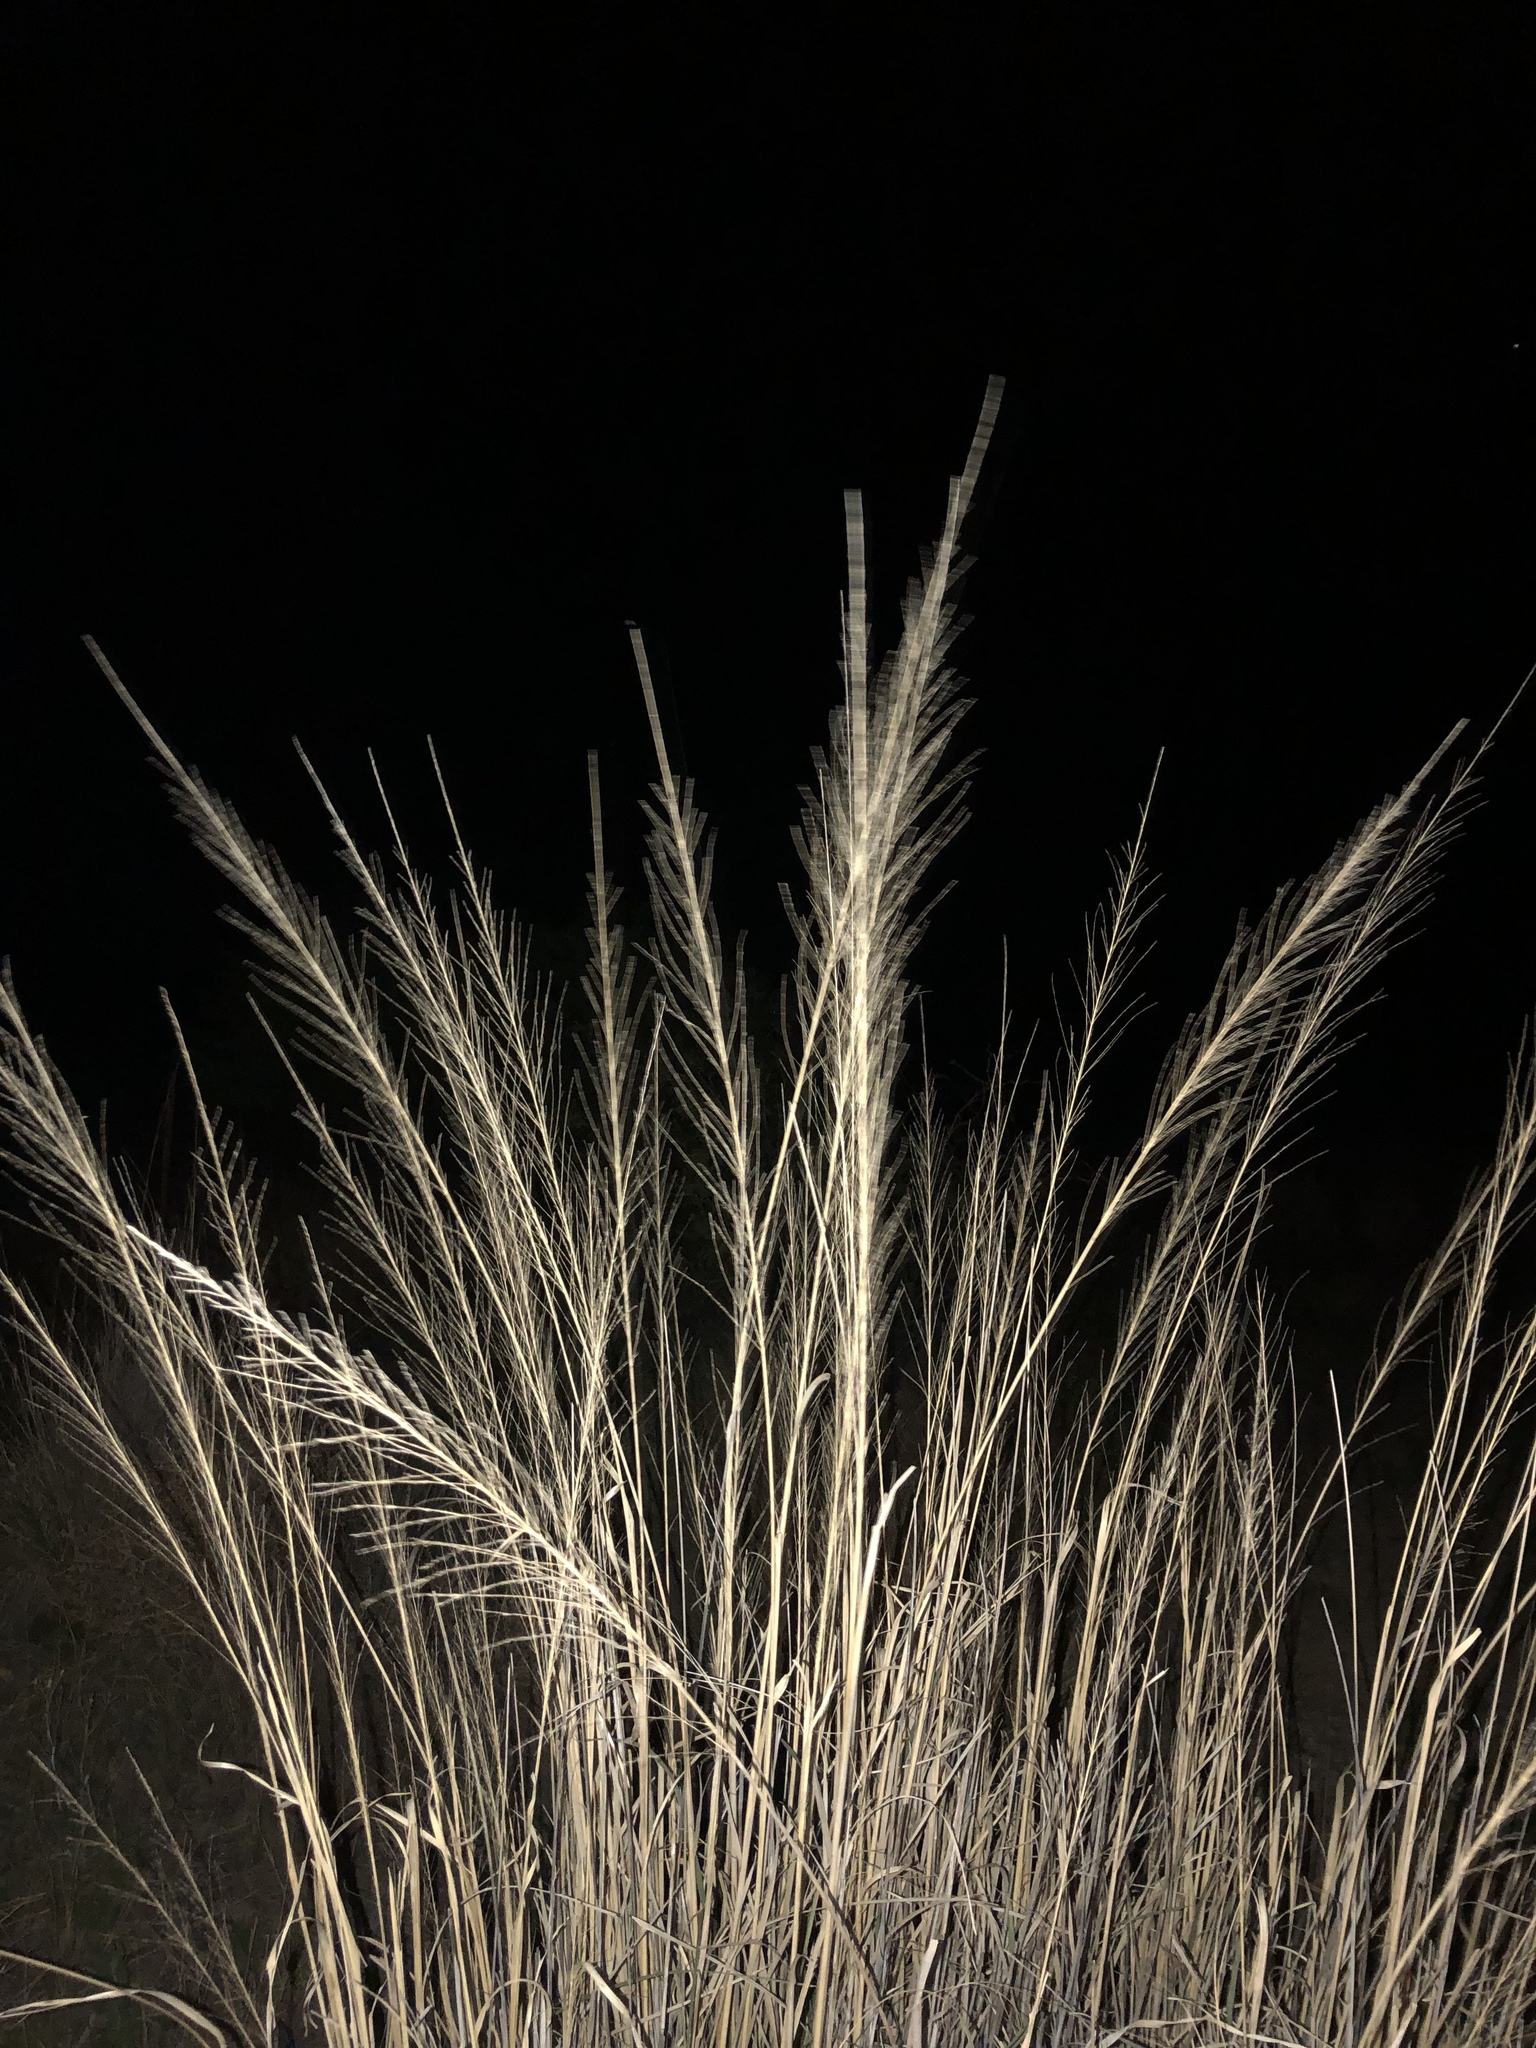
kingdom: Plantae
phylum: Tracheophyta
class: Liliopsida
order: Poales
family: Poaceae
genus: Sporobolus
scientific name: Sporobolus wrightii
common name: Big alkali sacaton
